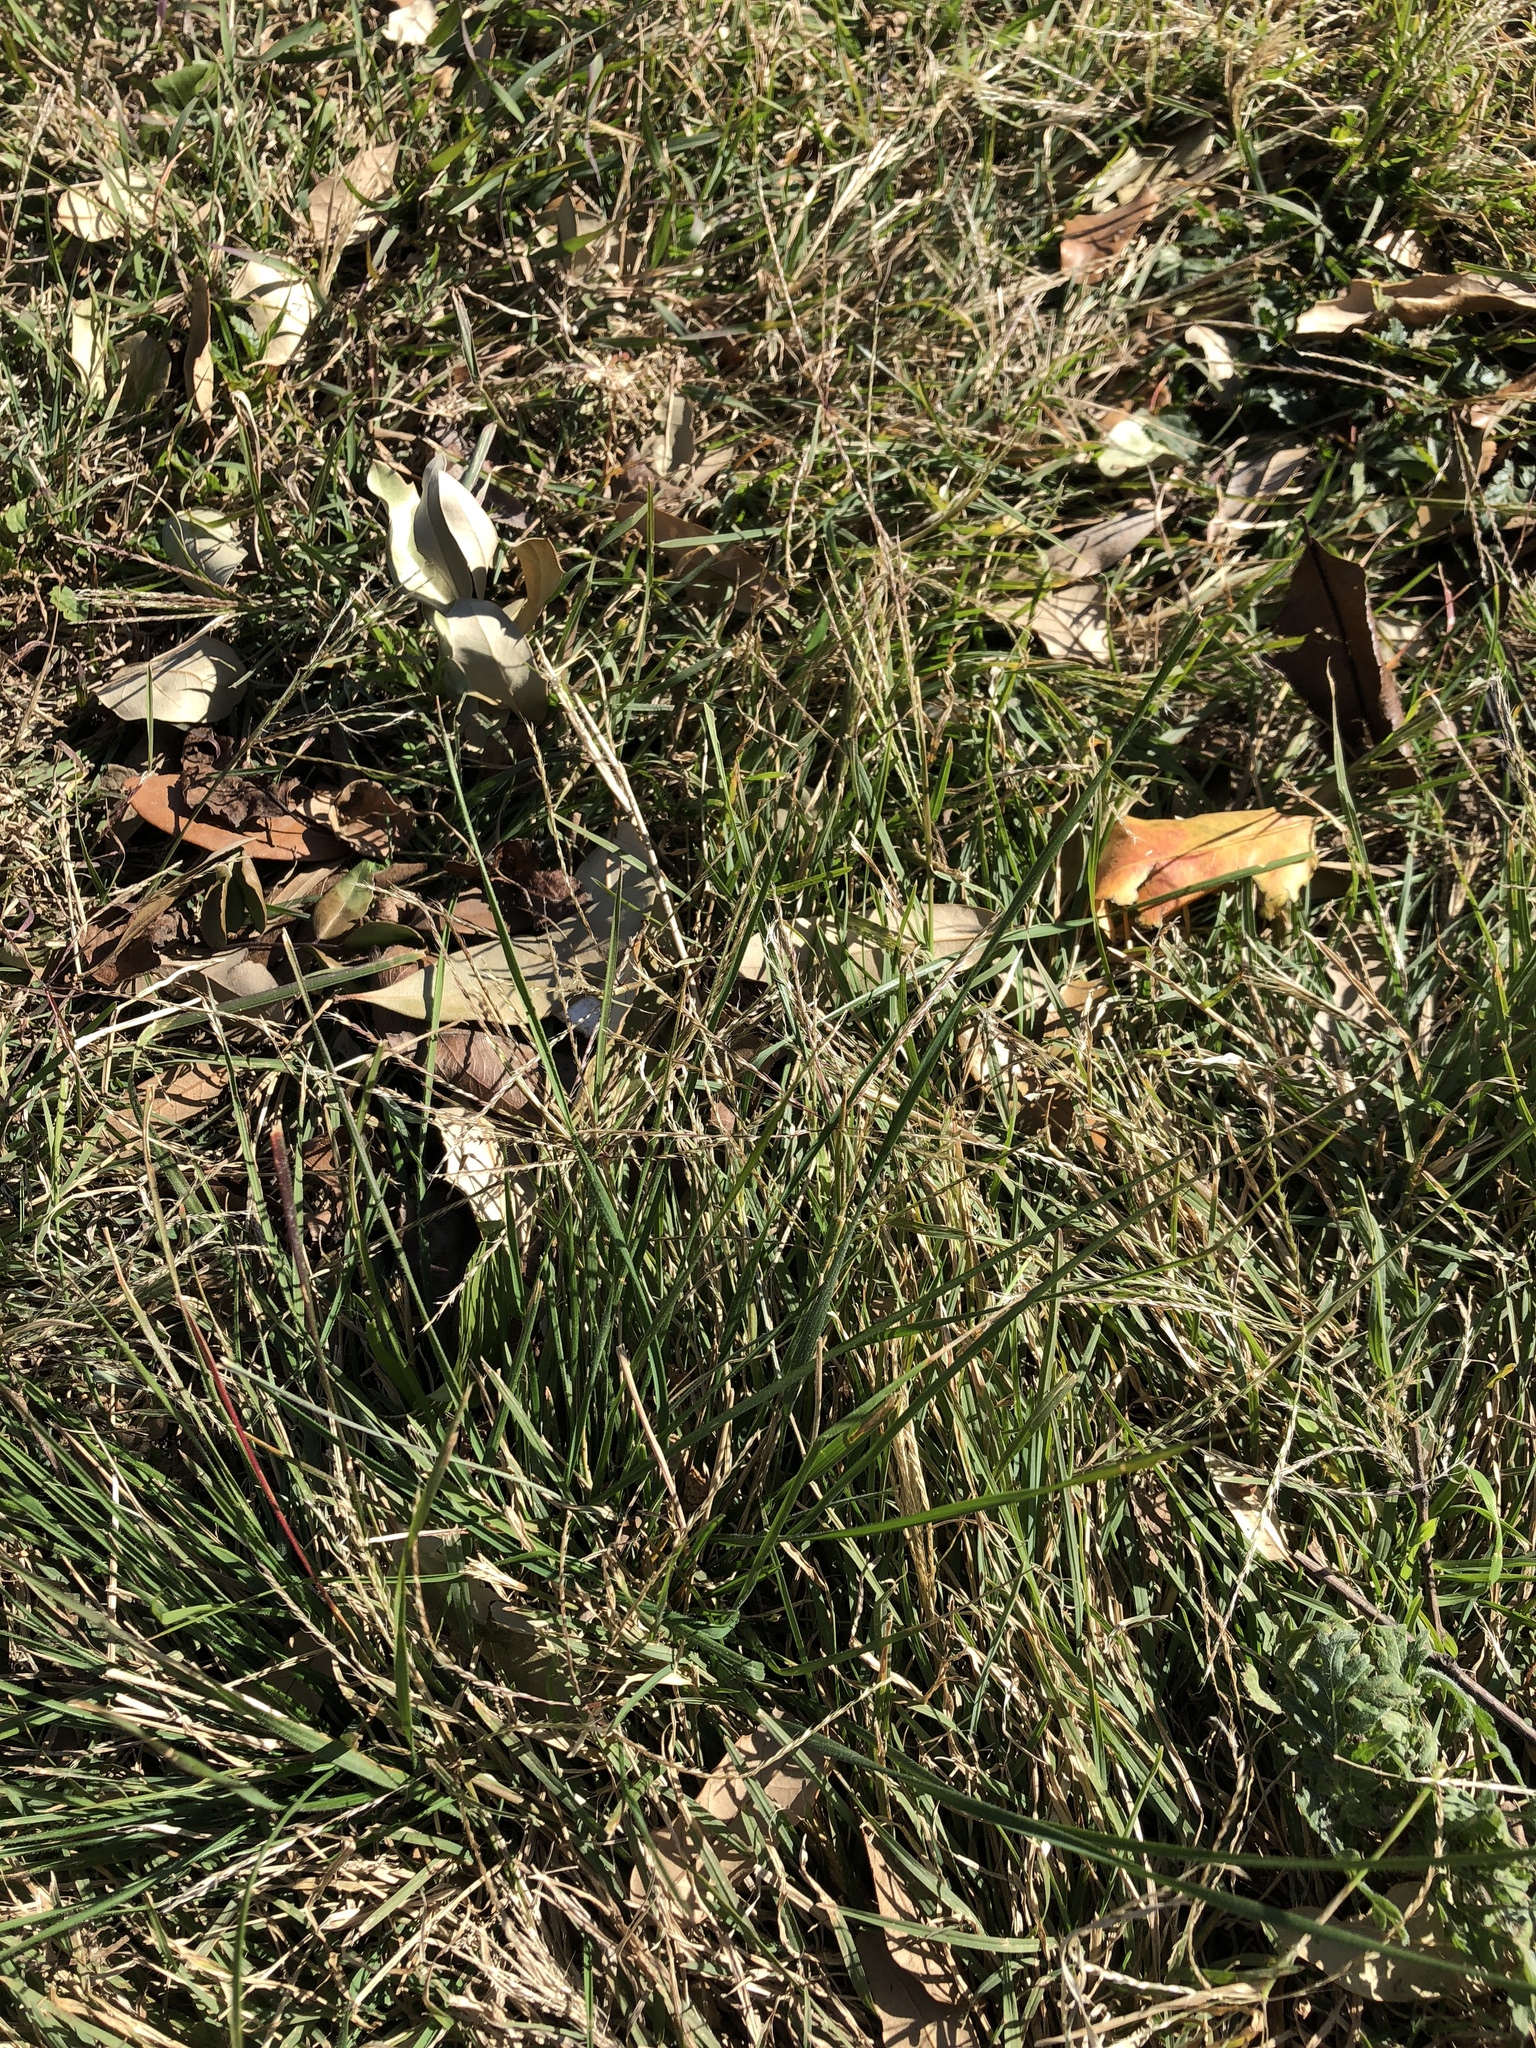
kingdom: Plantae
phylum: Tracheophyta
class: Liliopsida
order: Poales
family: Poaceae
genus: Chloris
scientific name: Chloris verticillata
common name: Tumble windmill grass
